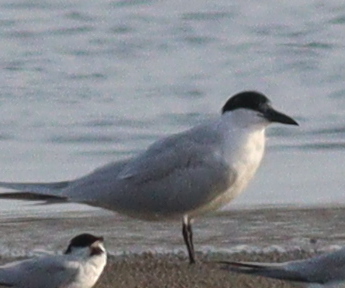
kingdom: Animalia
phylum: Chordata
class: Aves
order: Charadriiformes
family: Laridae
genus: Gelochelidon
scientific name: Gelochelidon nilotica
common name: Gull-billed tern
